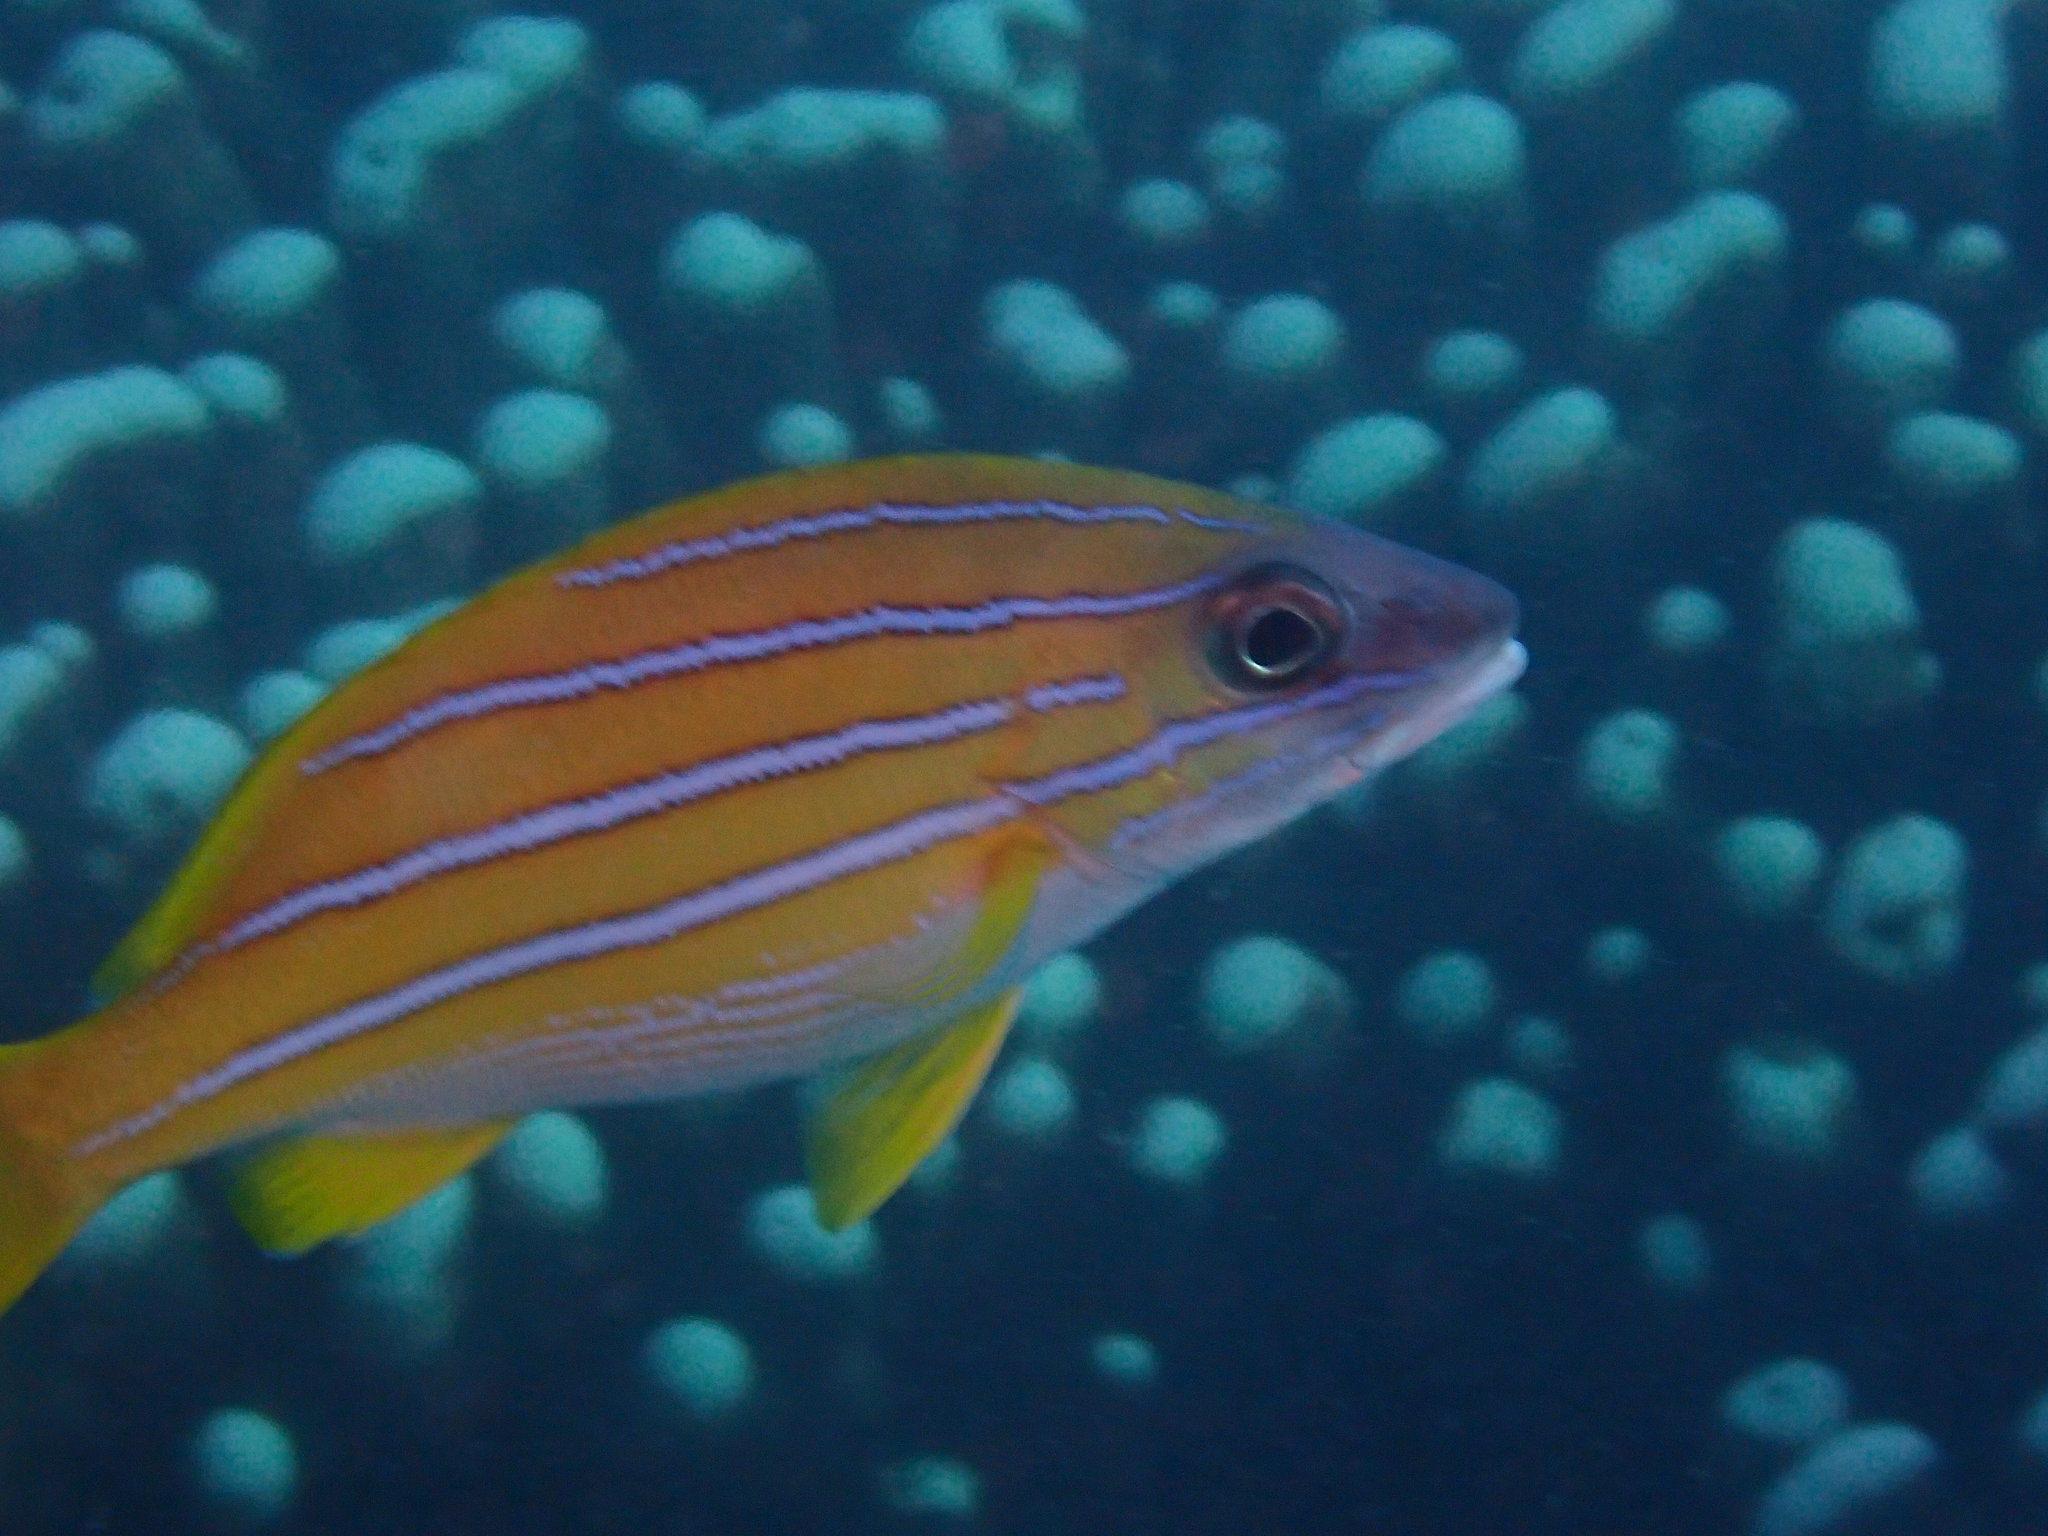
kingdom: Animalia
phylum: Chordata
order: Perciformes
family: Lutjanidae
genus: Lutjanus
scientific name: Lutjanus kasmira
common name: Common bluestripe snapper
